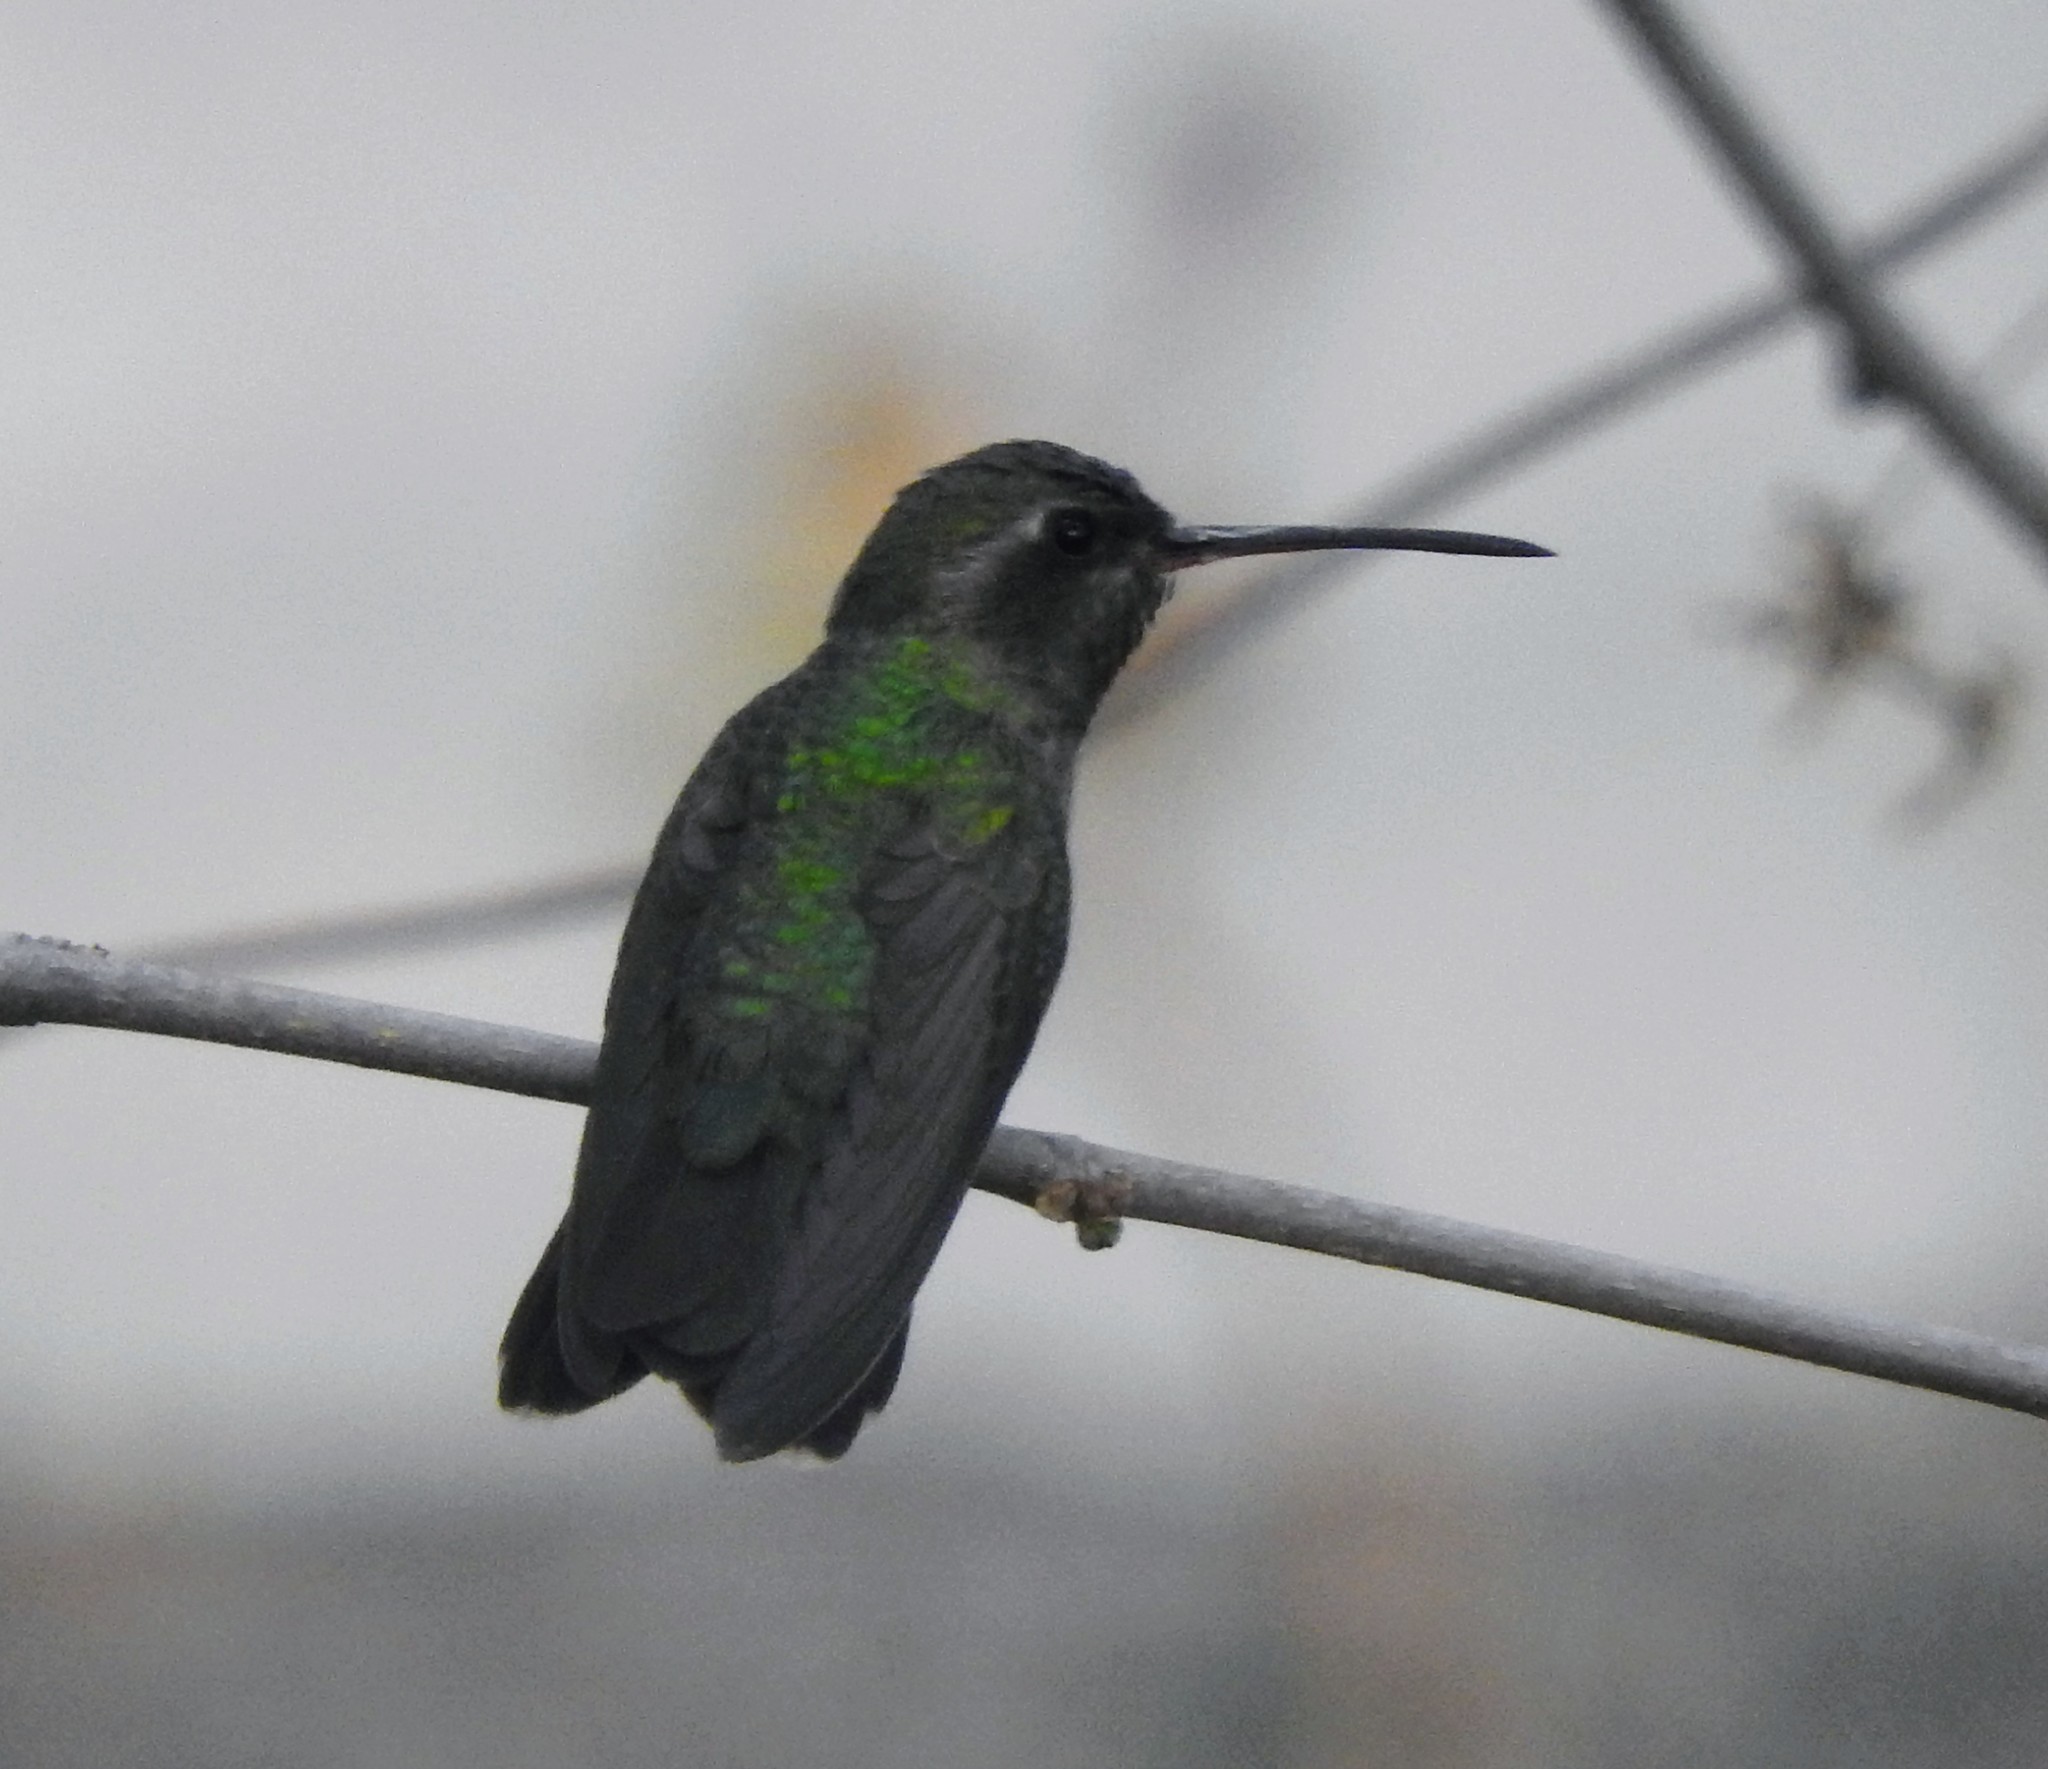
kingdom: Animalia
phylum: Chordata
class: Aves
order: Apodiformes
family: Trochilidae
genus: Cynanthus
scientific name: Cynanthus latirostris
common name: Broad-billed hummingbird
